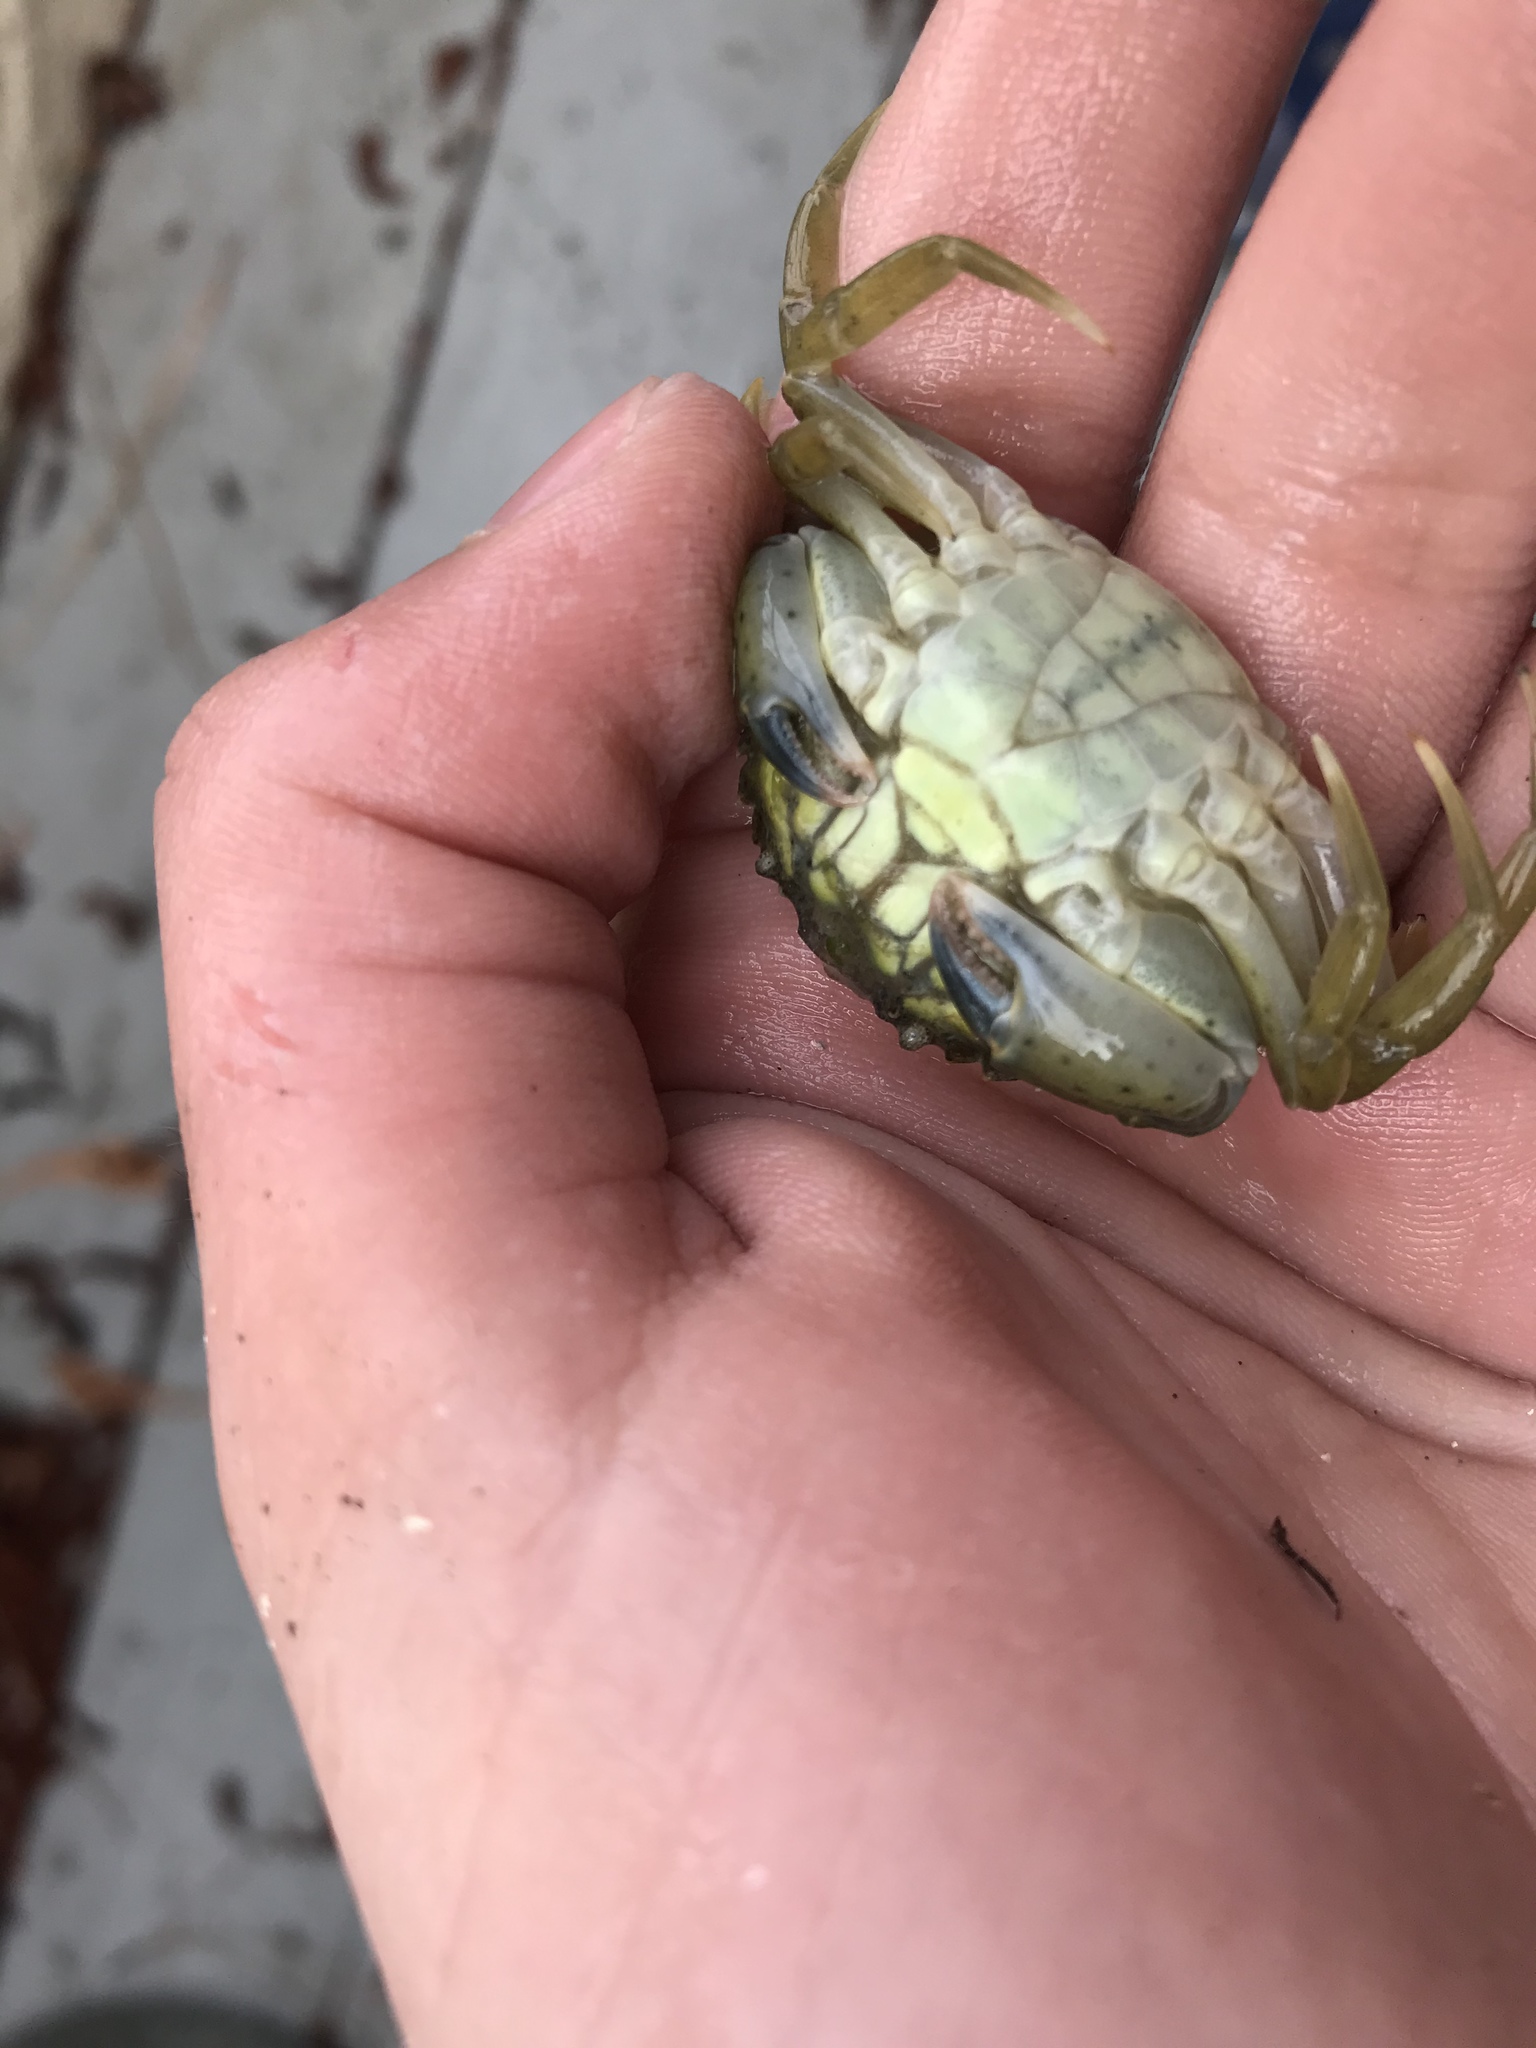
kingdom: Animalia
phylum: Arthropoda
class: Malacostraca
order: Decapoda
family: Carcinidae
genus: Carcinus
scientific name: Carcinus maenas
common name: European green crab
